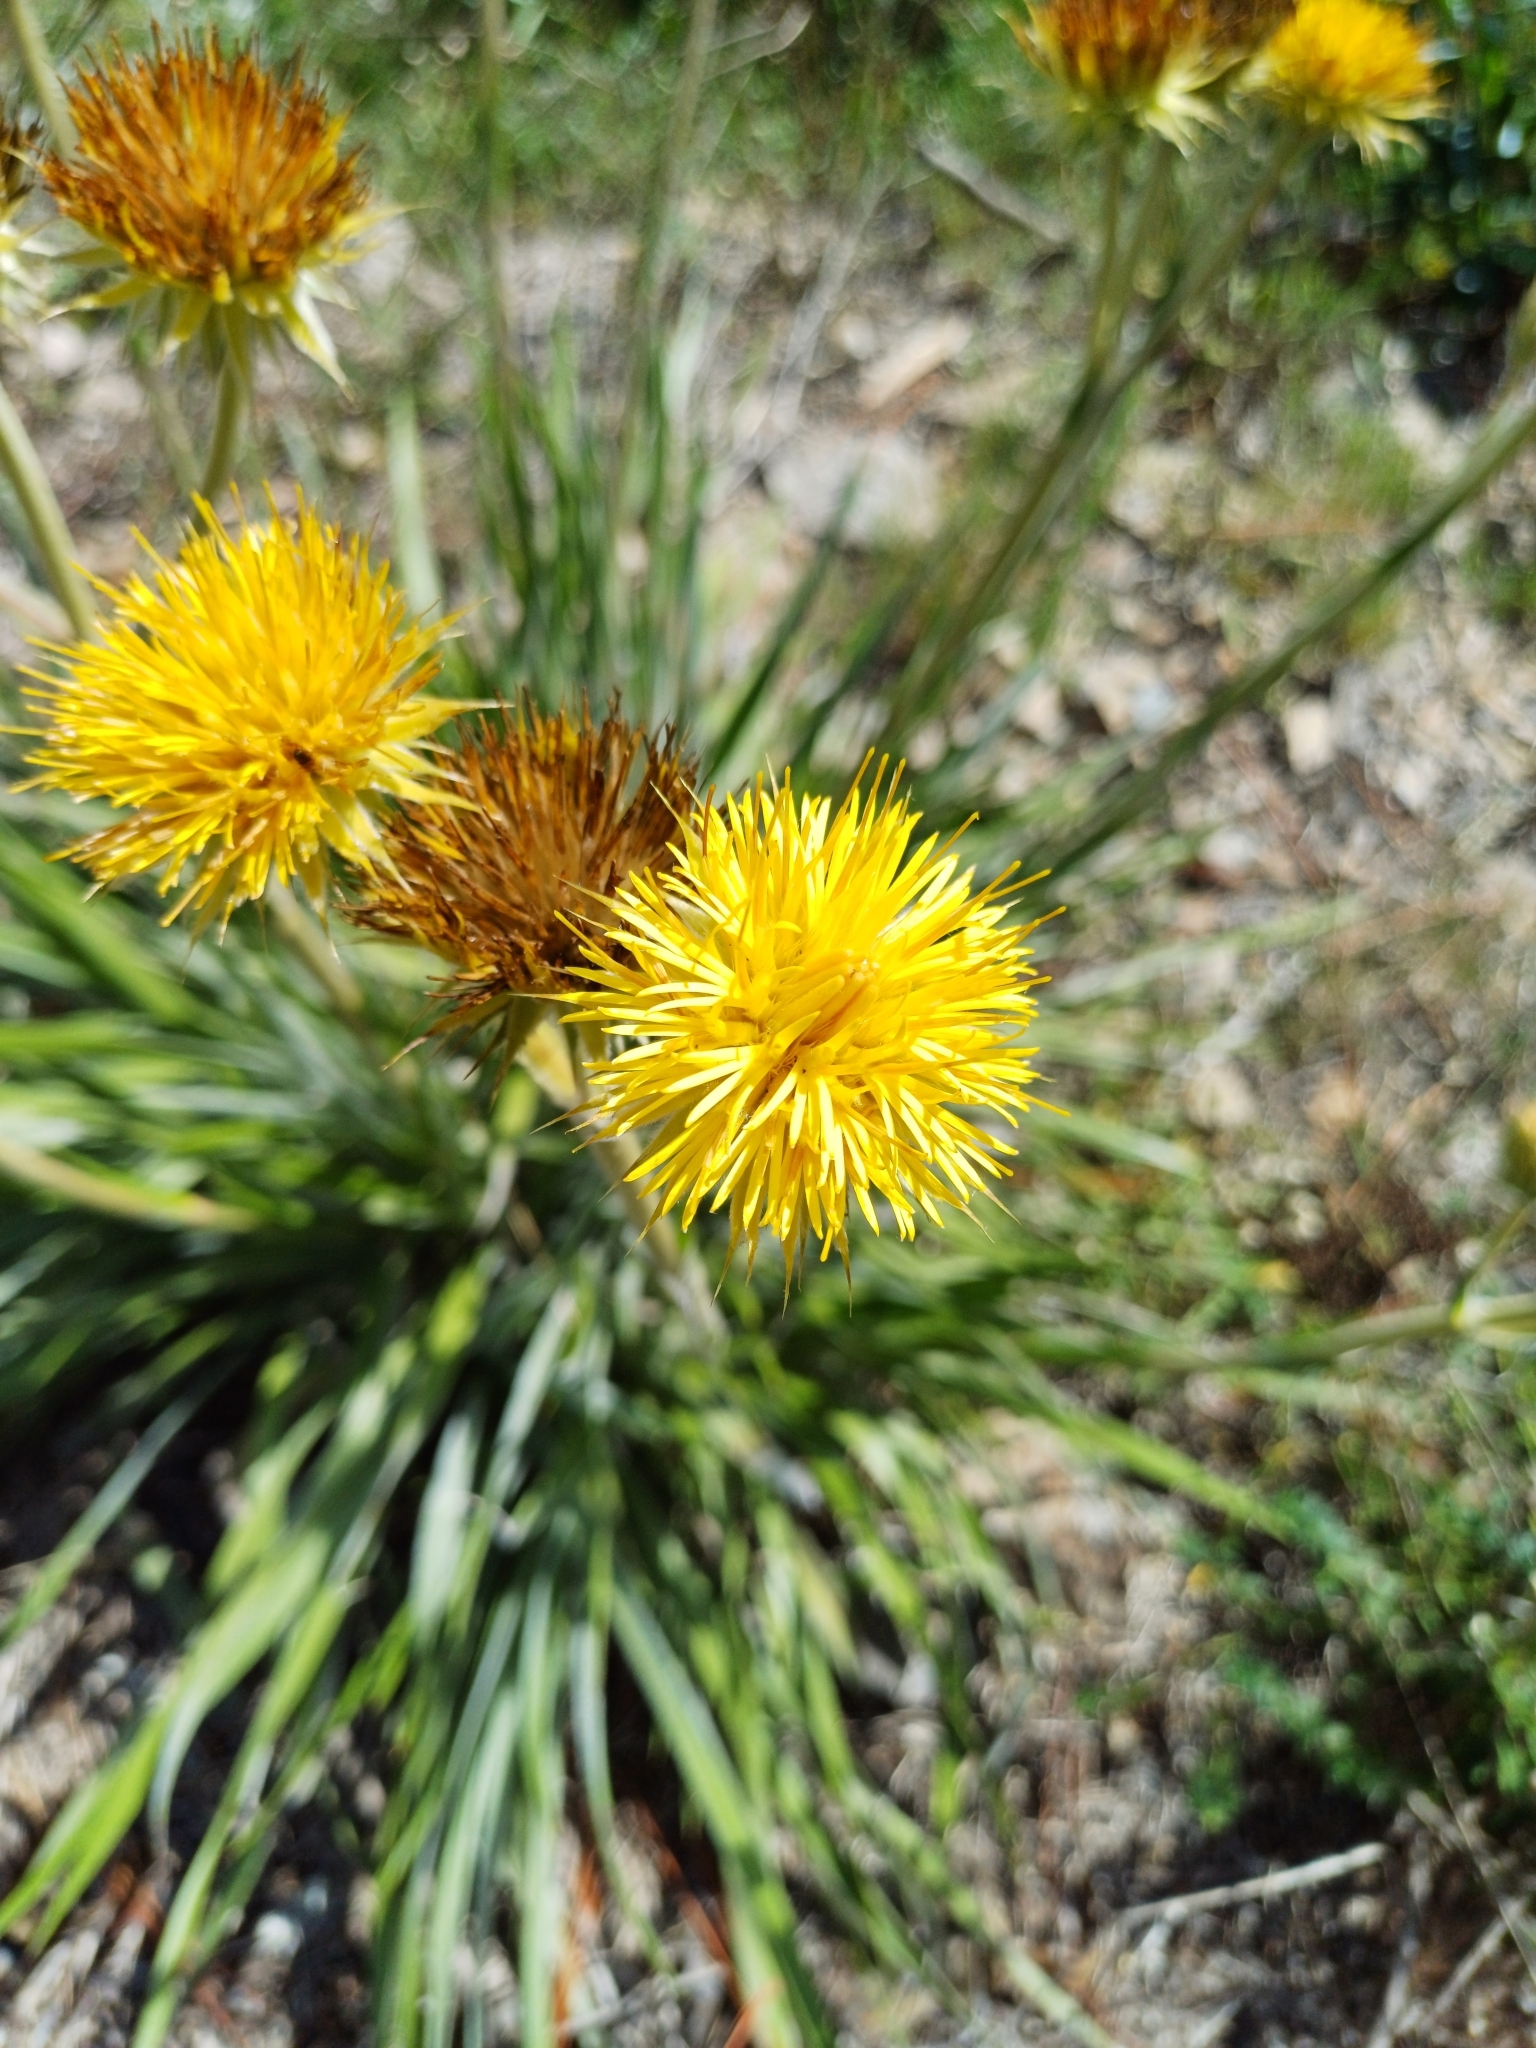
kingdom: Plantae
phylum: Tracheophyta
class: Magnoliopsida
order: Asterales
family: Asteraceae
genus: Schlechtendalia
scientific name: Schlechtendalia luzulifolia
